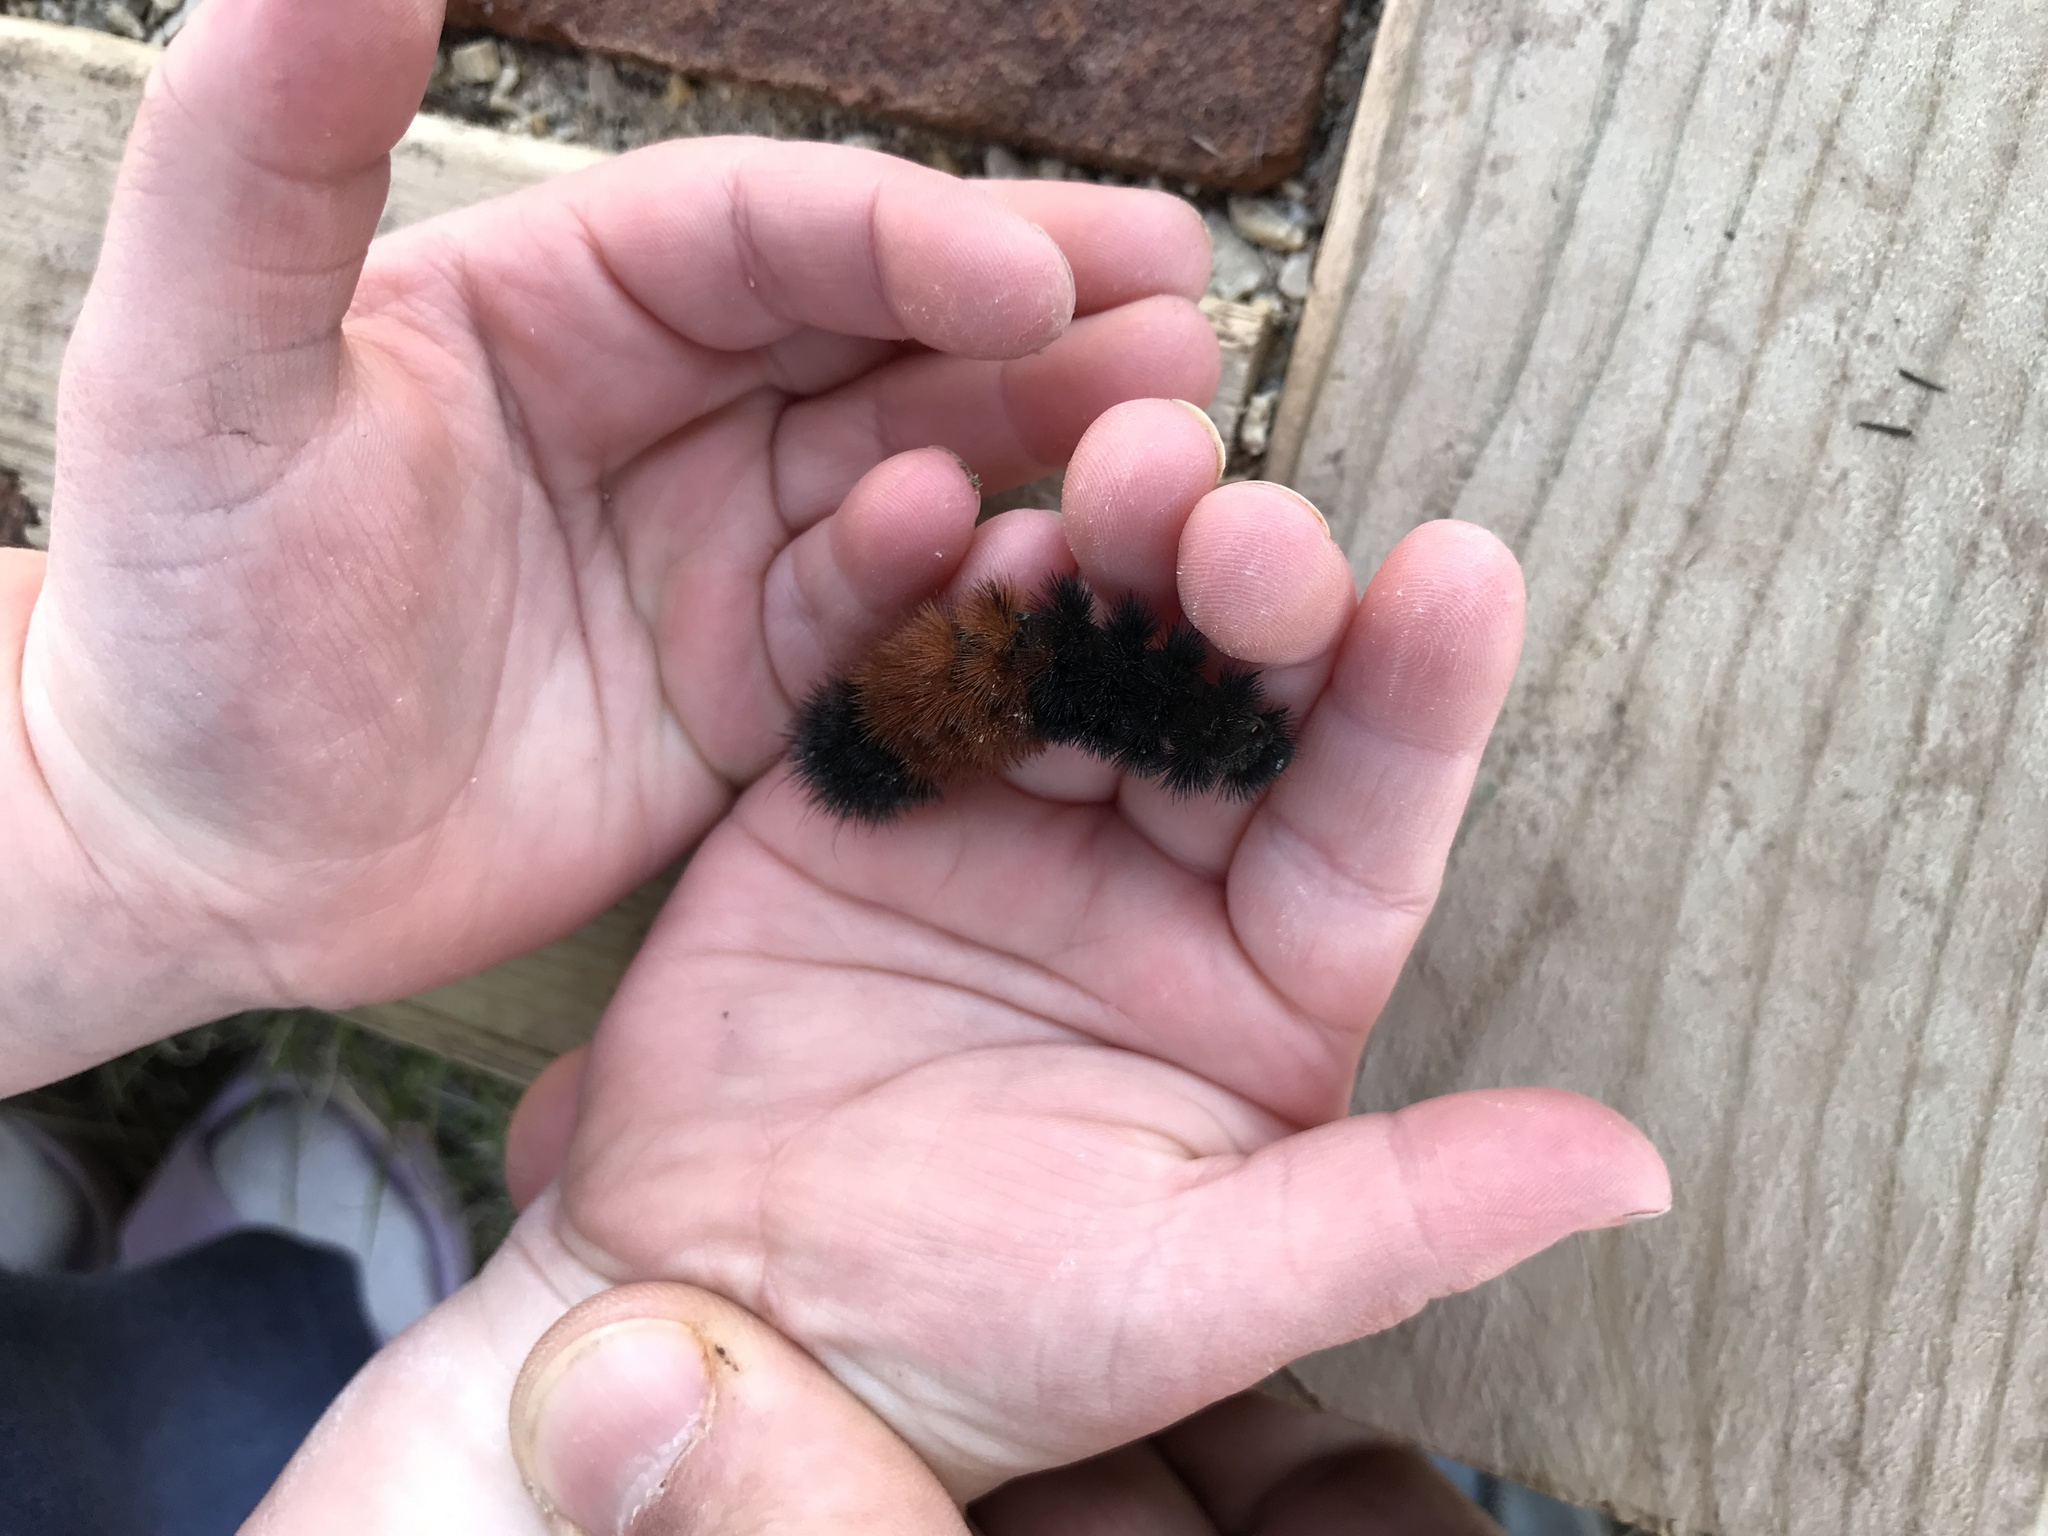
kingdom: Animalia
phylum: Arthropoda
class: Insecta
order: Lepidoptera
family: Erebidae
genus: Pyrrharctia
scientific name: Pyrrharctia isabella
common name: Isabella tiger moth
